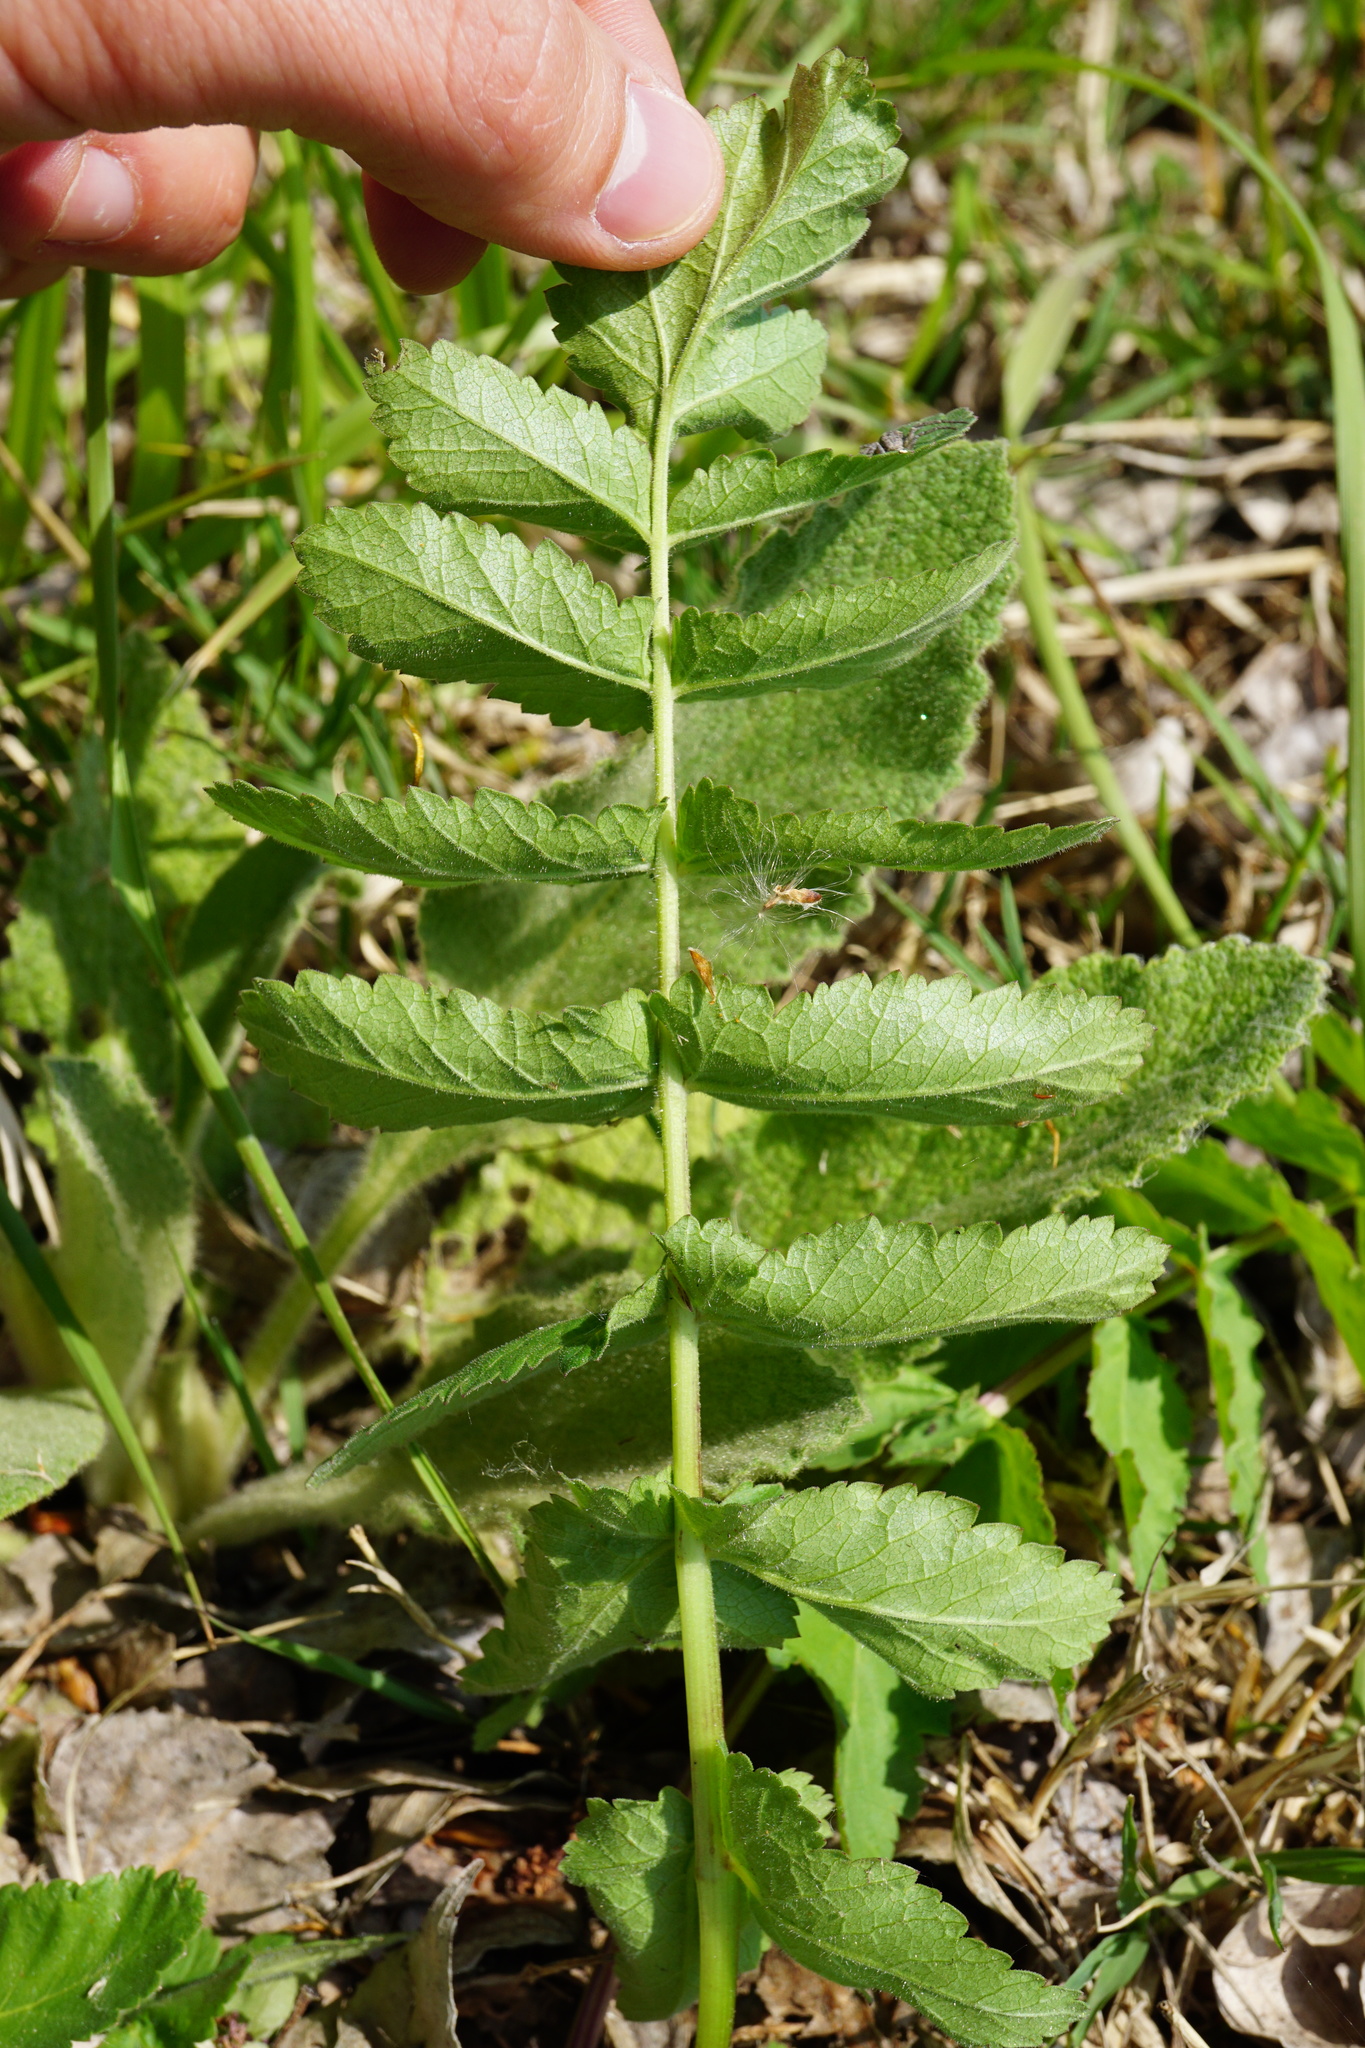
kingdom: Plantae
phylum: Tracheophyta
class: Magnoliopsida
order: Apiales
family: Apiaceae
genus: Pastinaca
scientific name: Pastinaca sativa
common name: Wild parsnip
